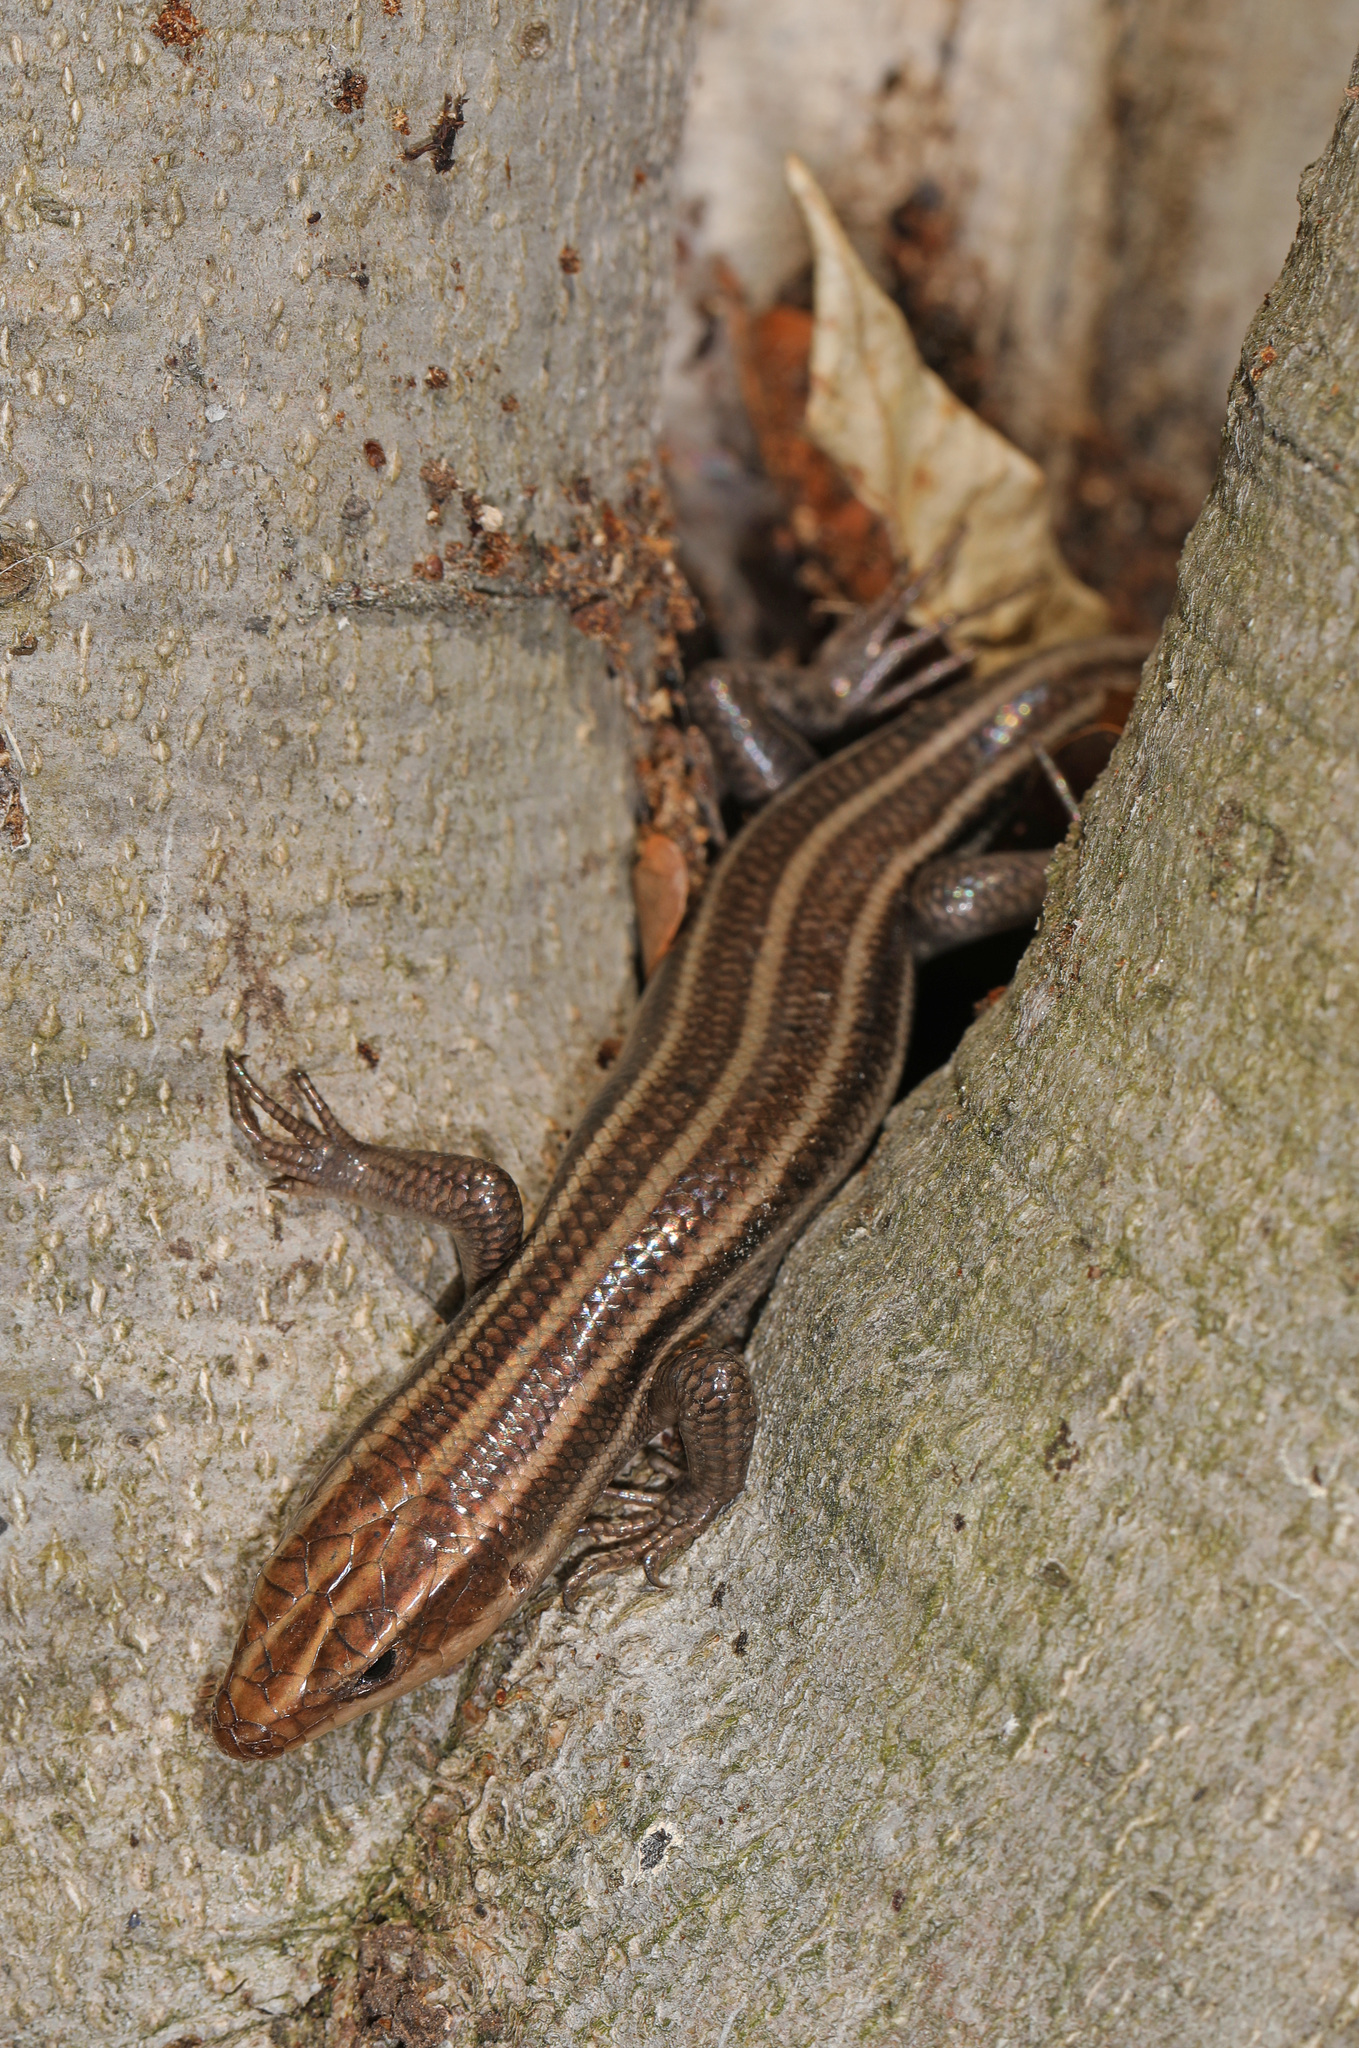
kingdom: Animalia
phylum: Chordata
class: Squamata
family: Scincidae
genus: Plestiodon
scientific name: Plestiodon fasciatus
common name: Five-lined skink
